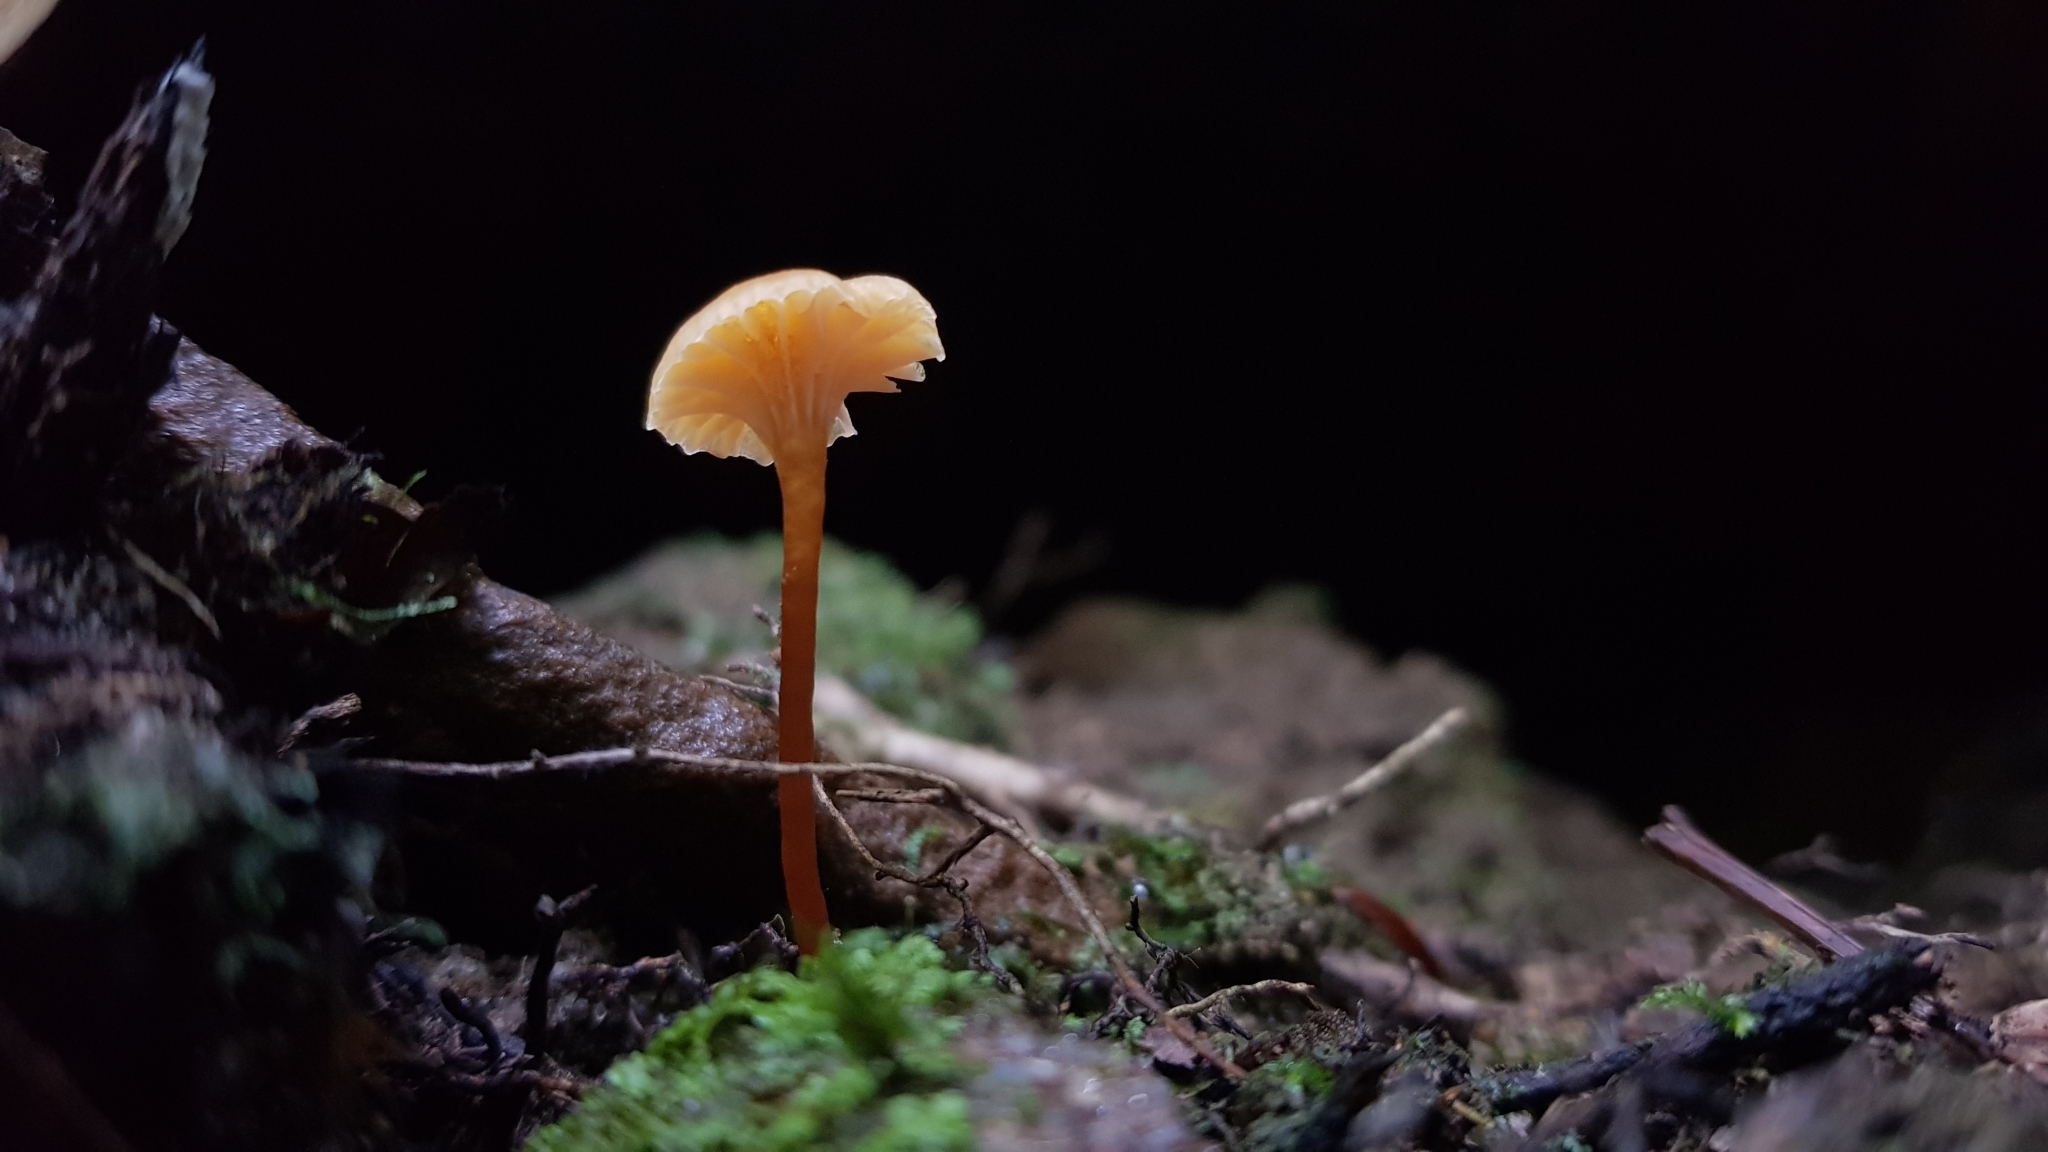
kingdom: Fungi
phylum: Basidiomycota
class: Agaricomycetes
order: Agaricales
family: Hygrophoraceae
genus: Hygrocybe
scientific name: Hygrocybe anomala
